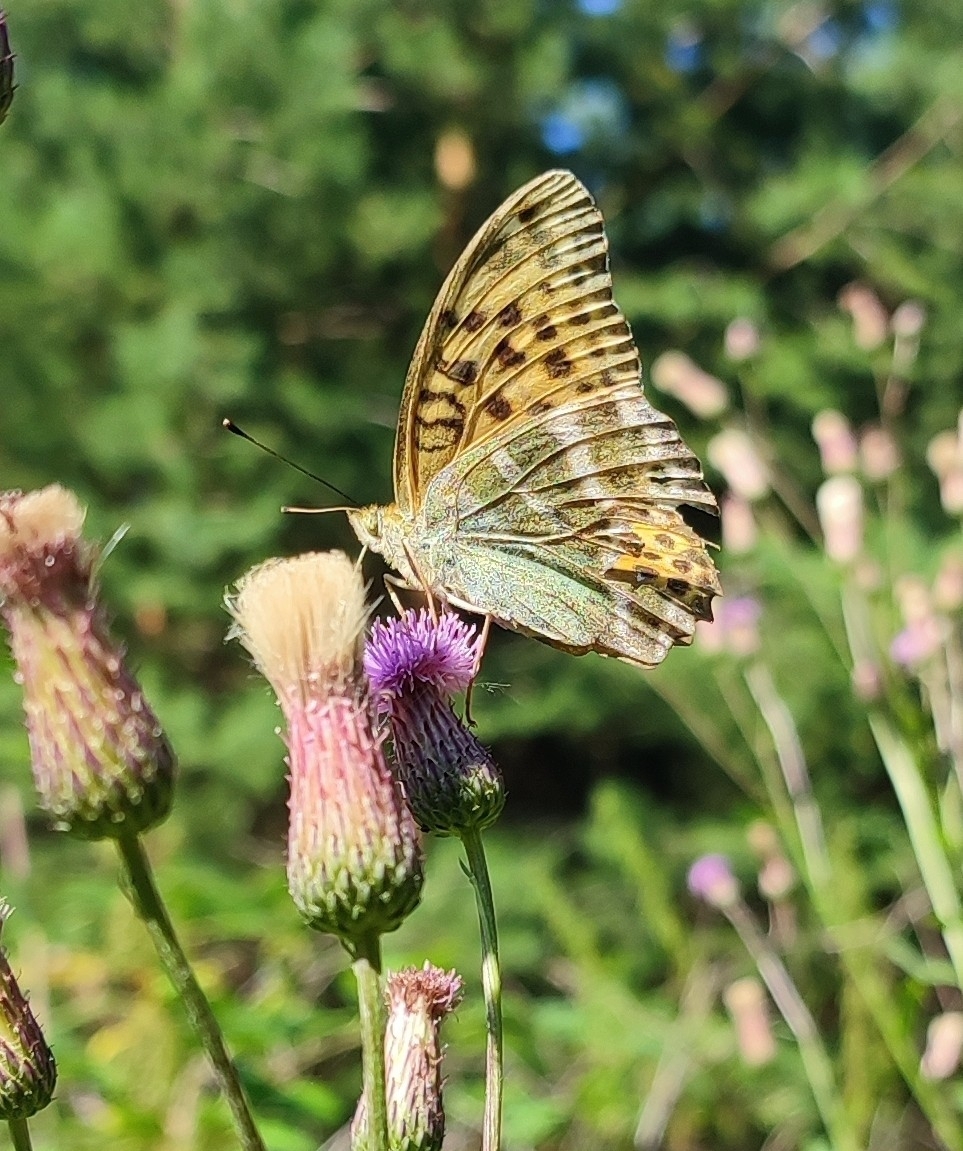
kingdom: Animalia
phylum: Arthropoda
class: Insecta
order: Lepidoptera
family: Nymphalidae
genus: Argynnis
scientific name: Argynnis paphia
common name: Silver-washed fritillary
